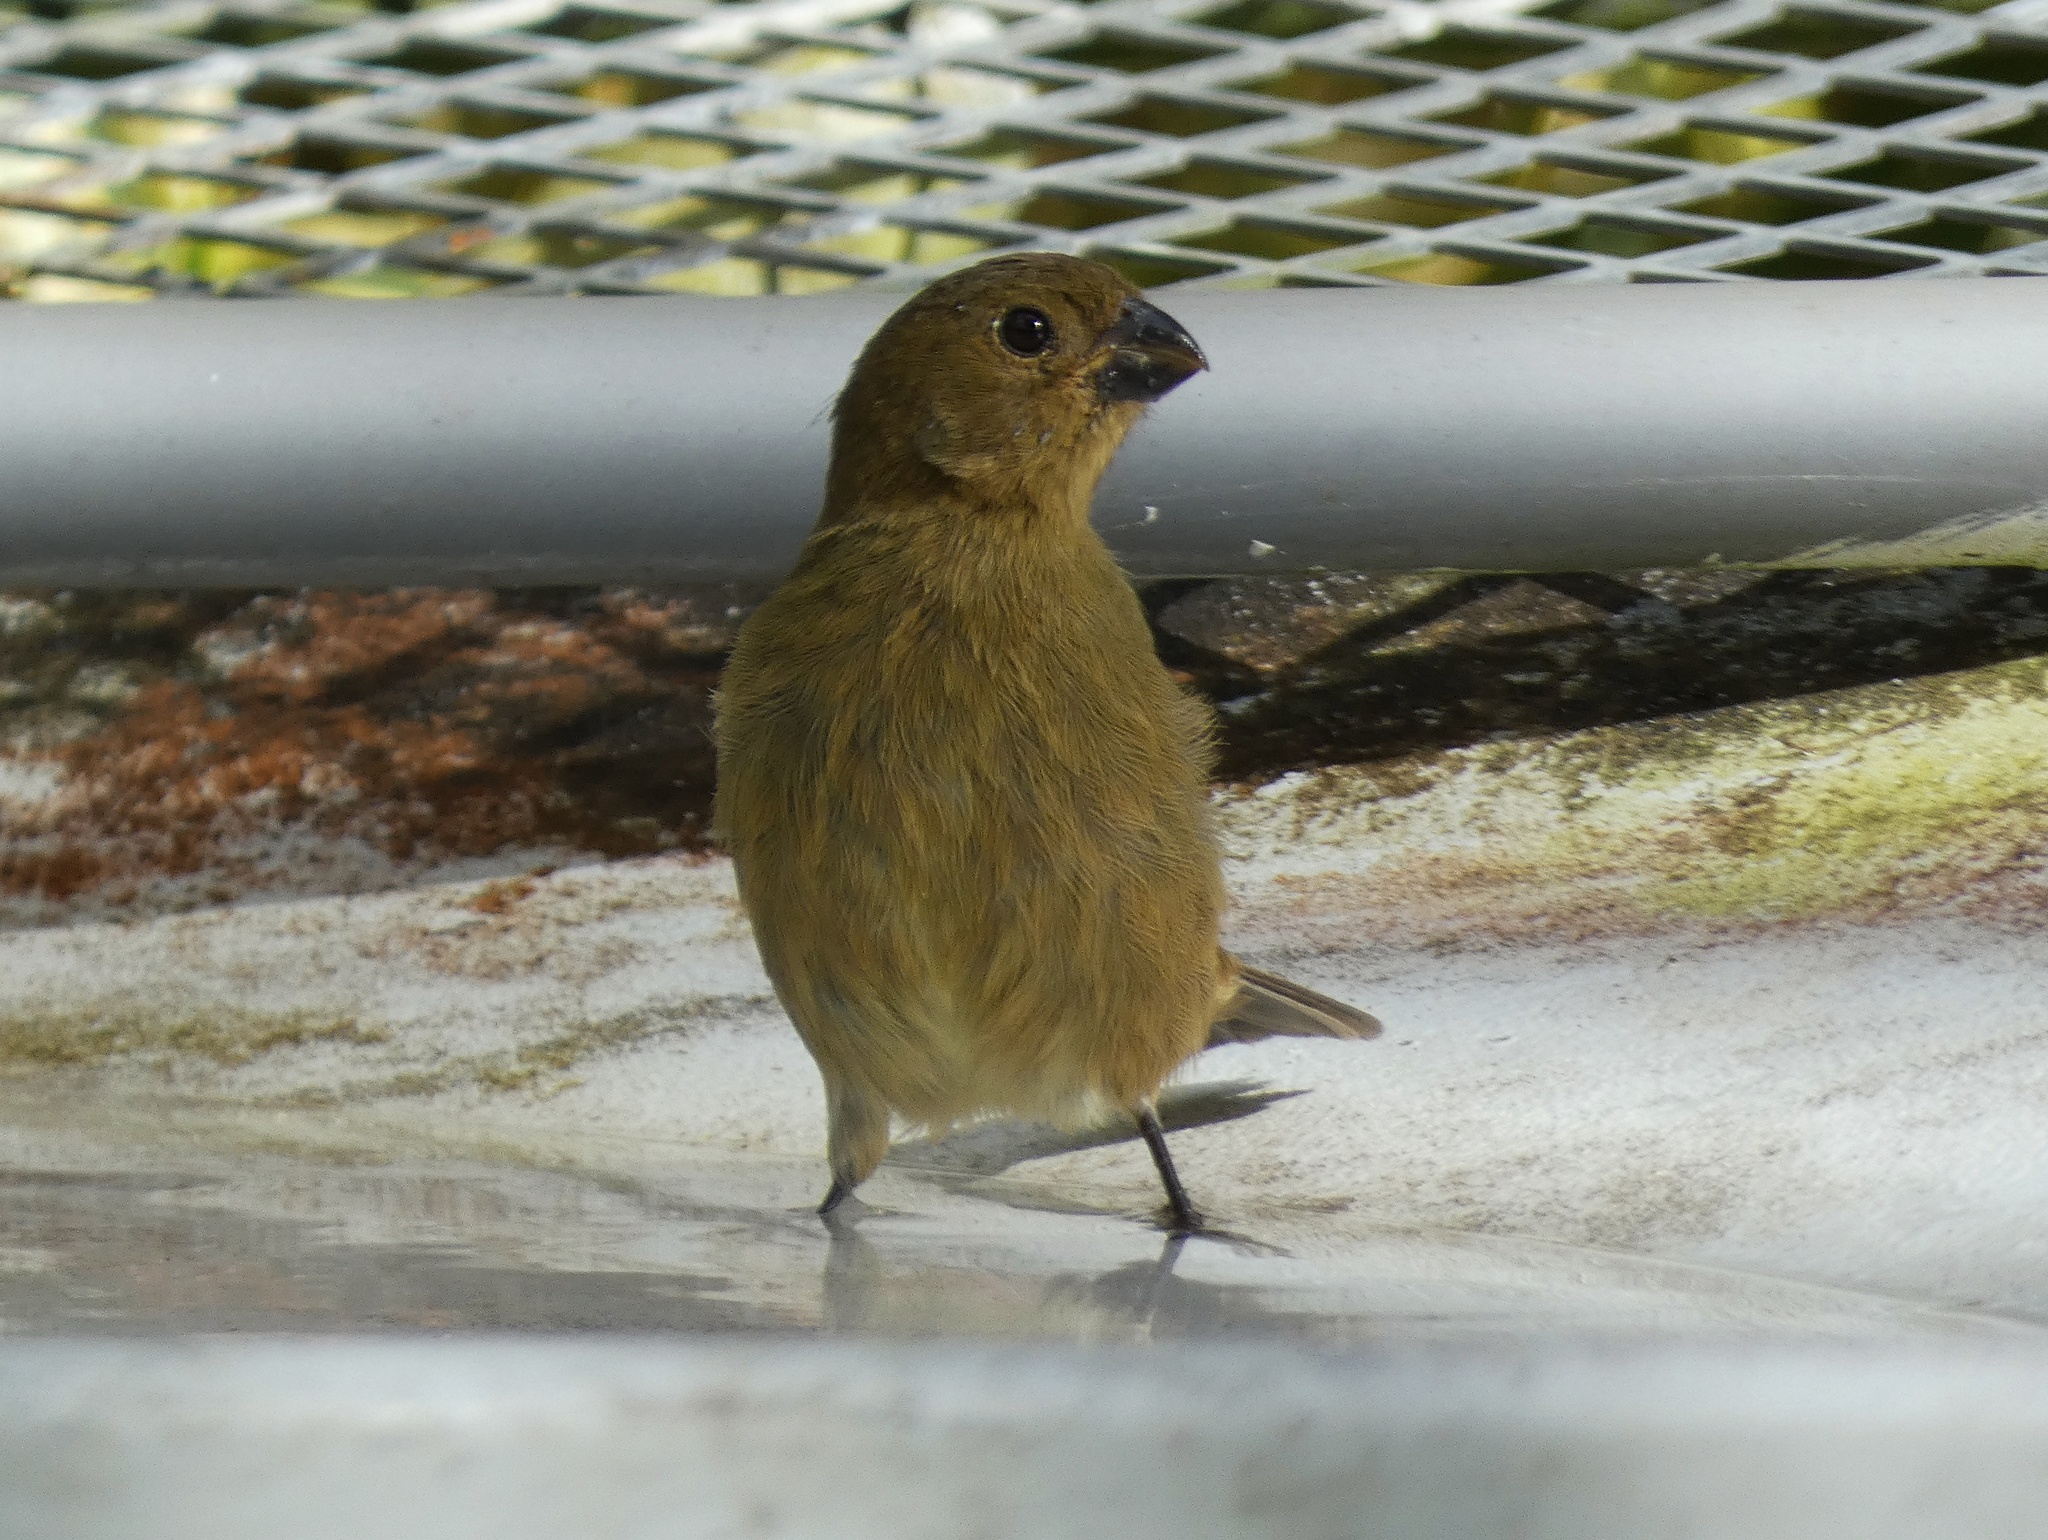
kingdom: Animalia
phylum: Chordata
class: Aves
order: Passeriformes
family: Thraupidae
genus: Sporophila
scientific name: Sporophila corvina
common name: Variable seedeater
